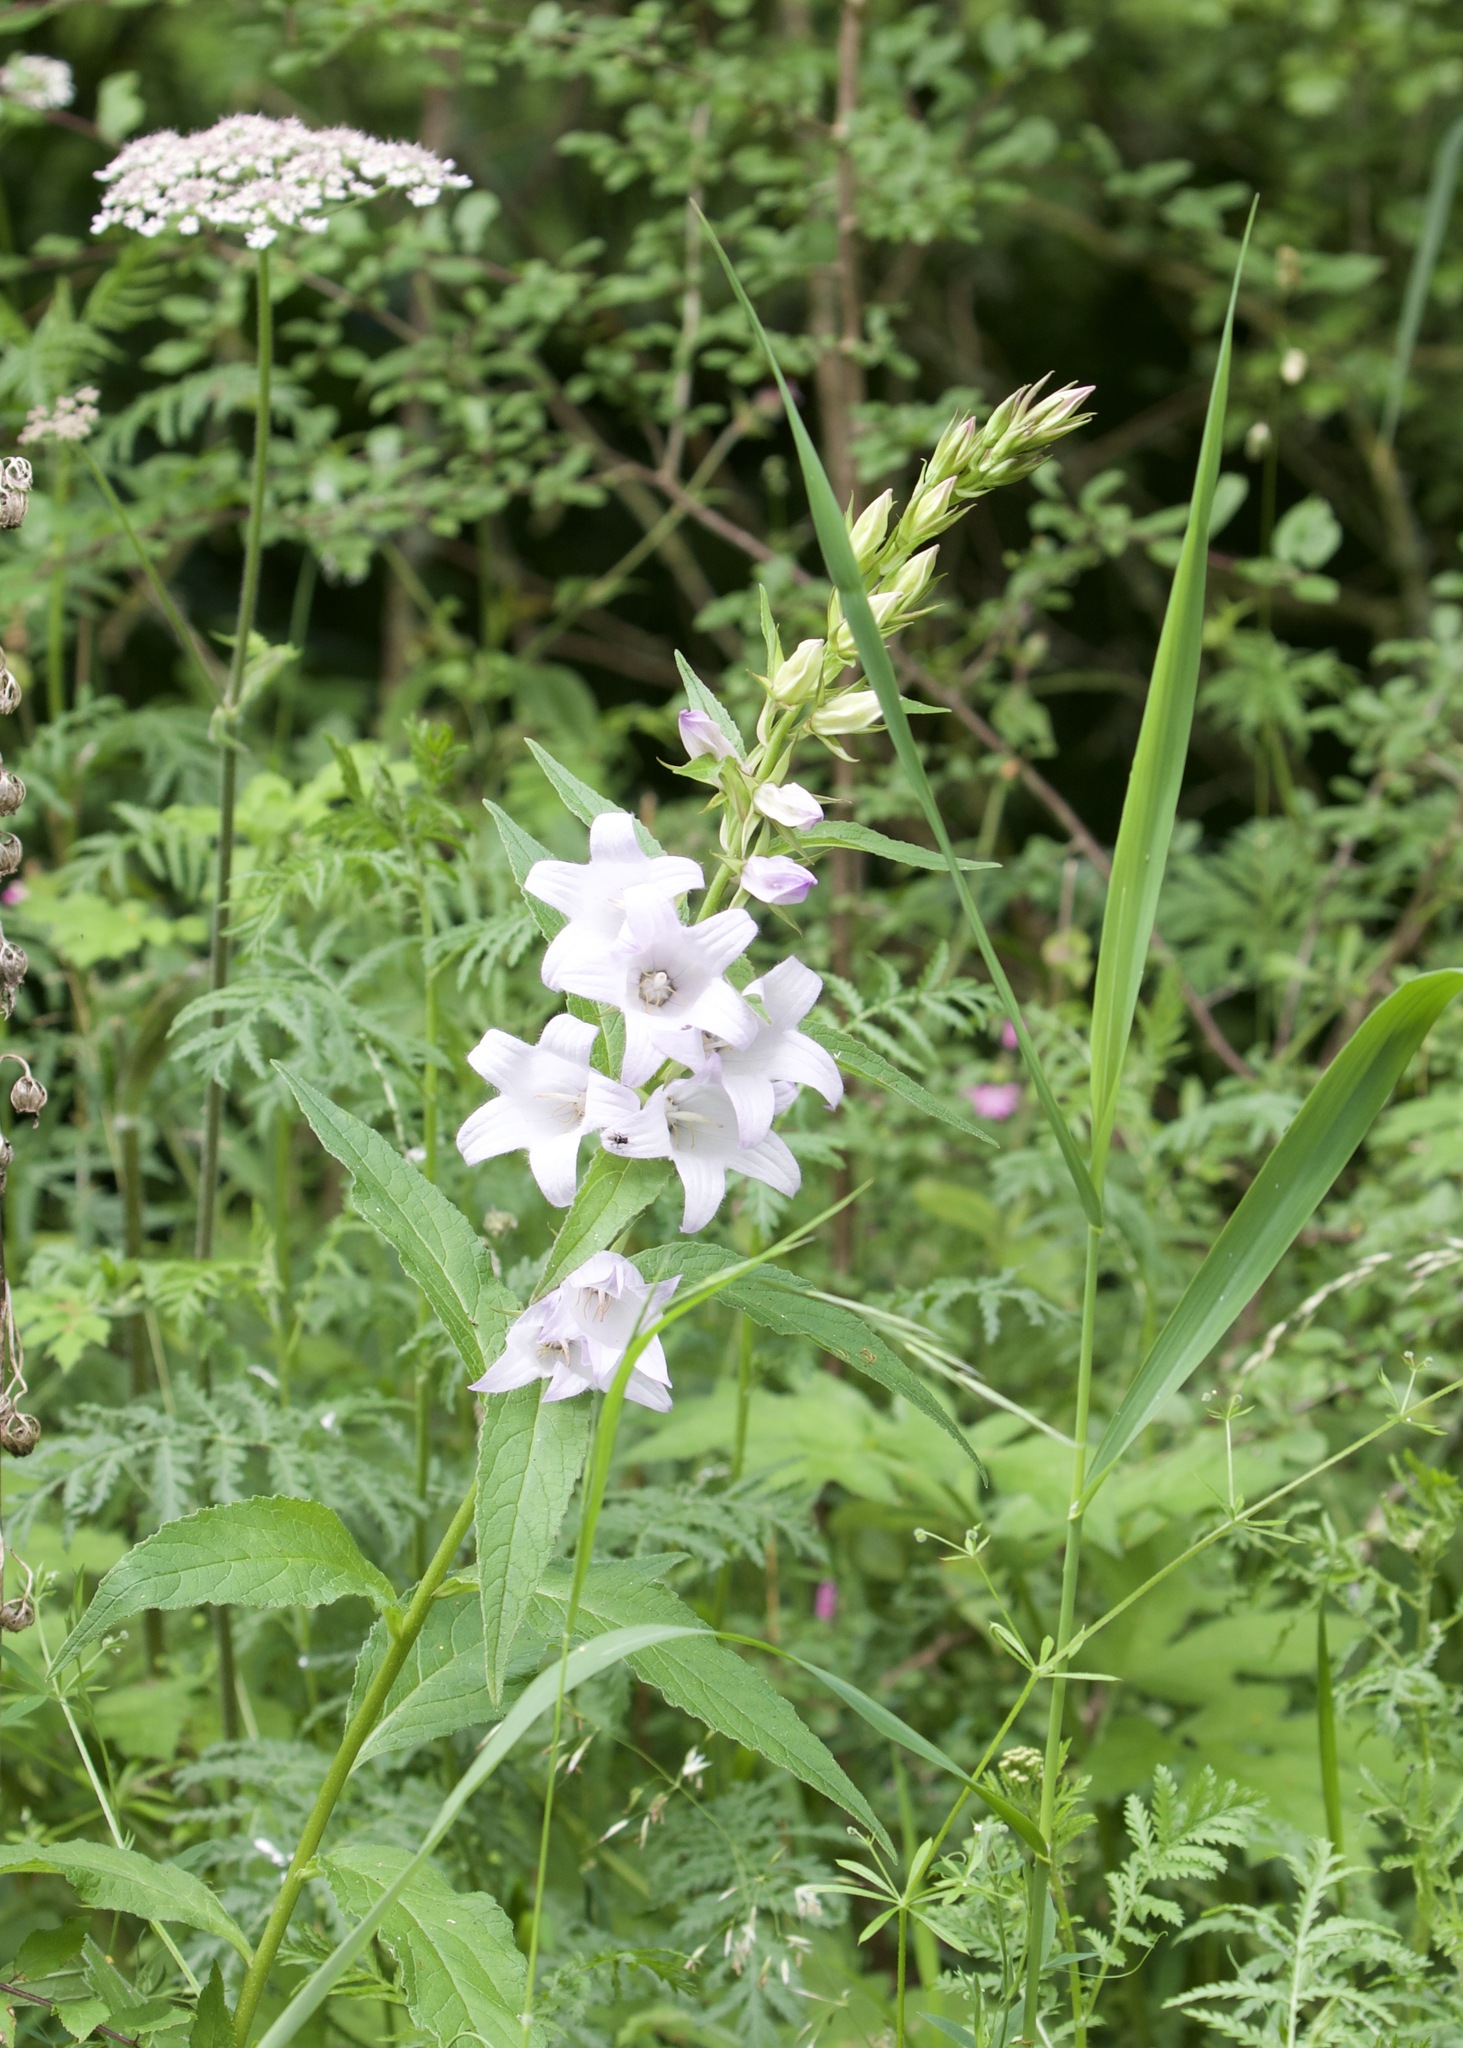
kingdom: Plantae
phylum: Tracheophyta
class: Magnoliopsida
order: Asterales
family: Campanulaceae
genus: Campanula
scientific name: Campanula latifolia
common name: Giant bellflower
